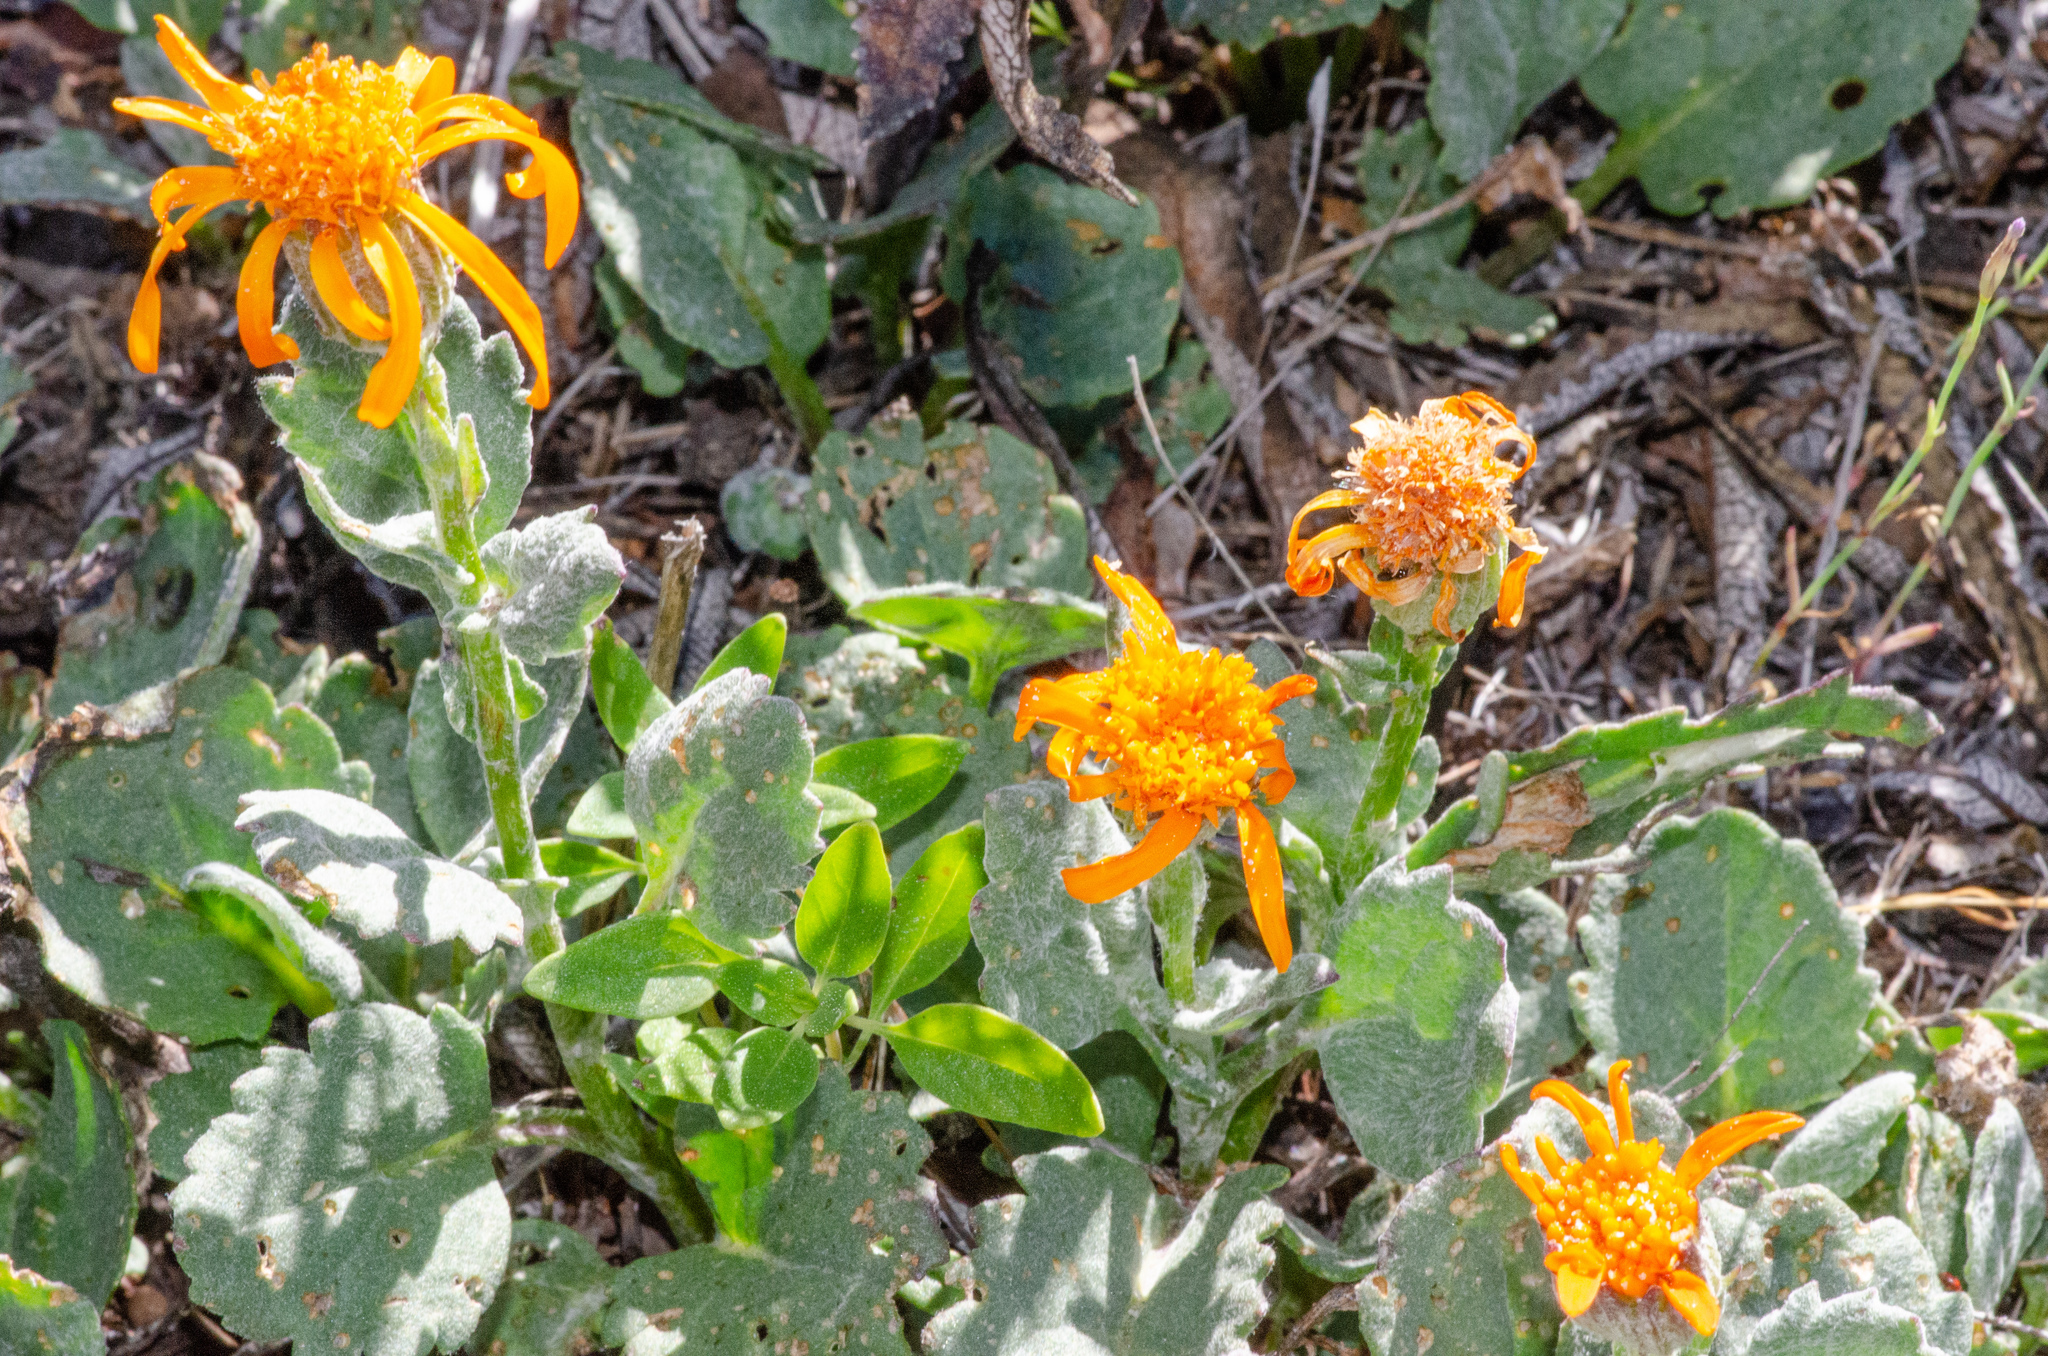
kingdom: Plantae
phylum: Tracheophyta
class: Magnoliopsida
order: Asterales
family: Asteraceae
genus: Packera
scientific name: Packera greenei
